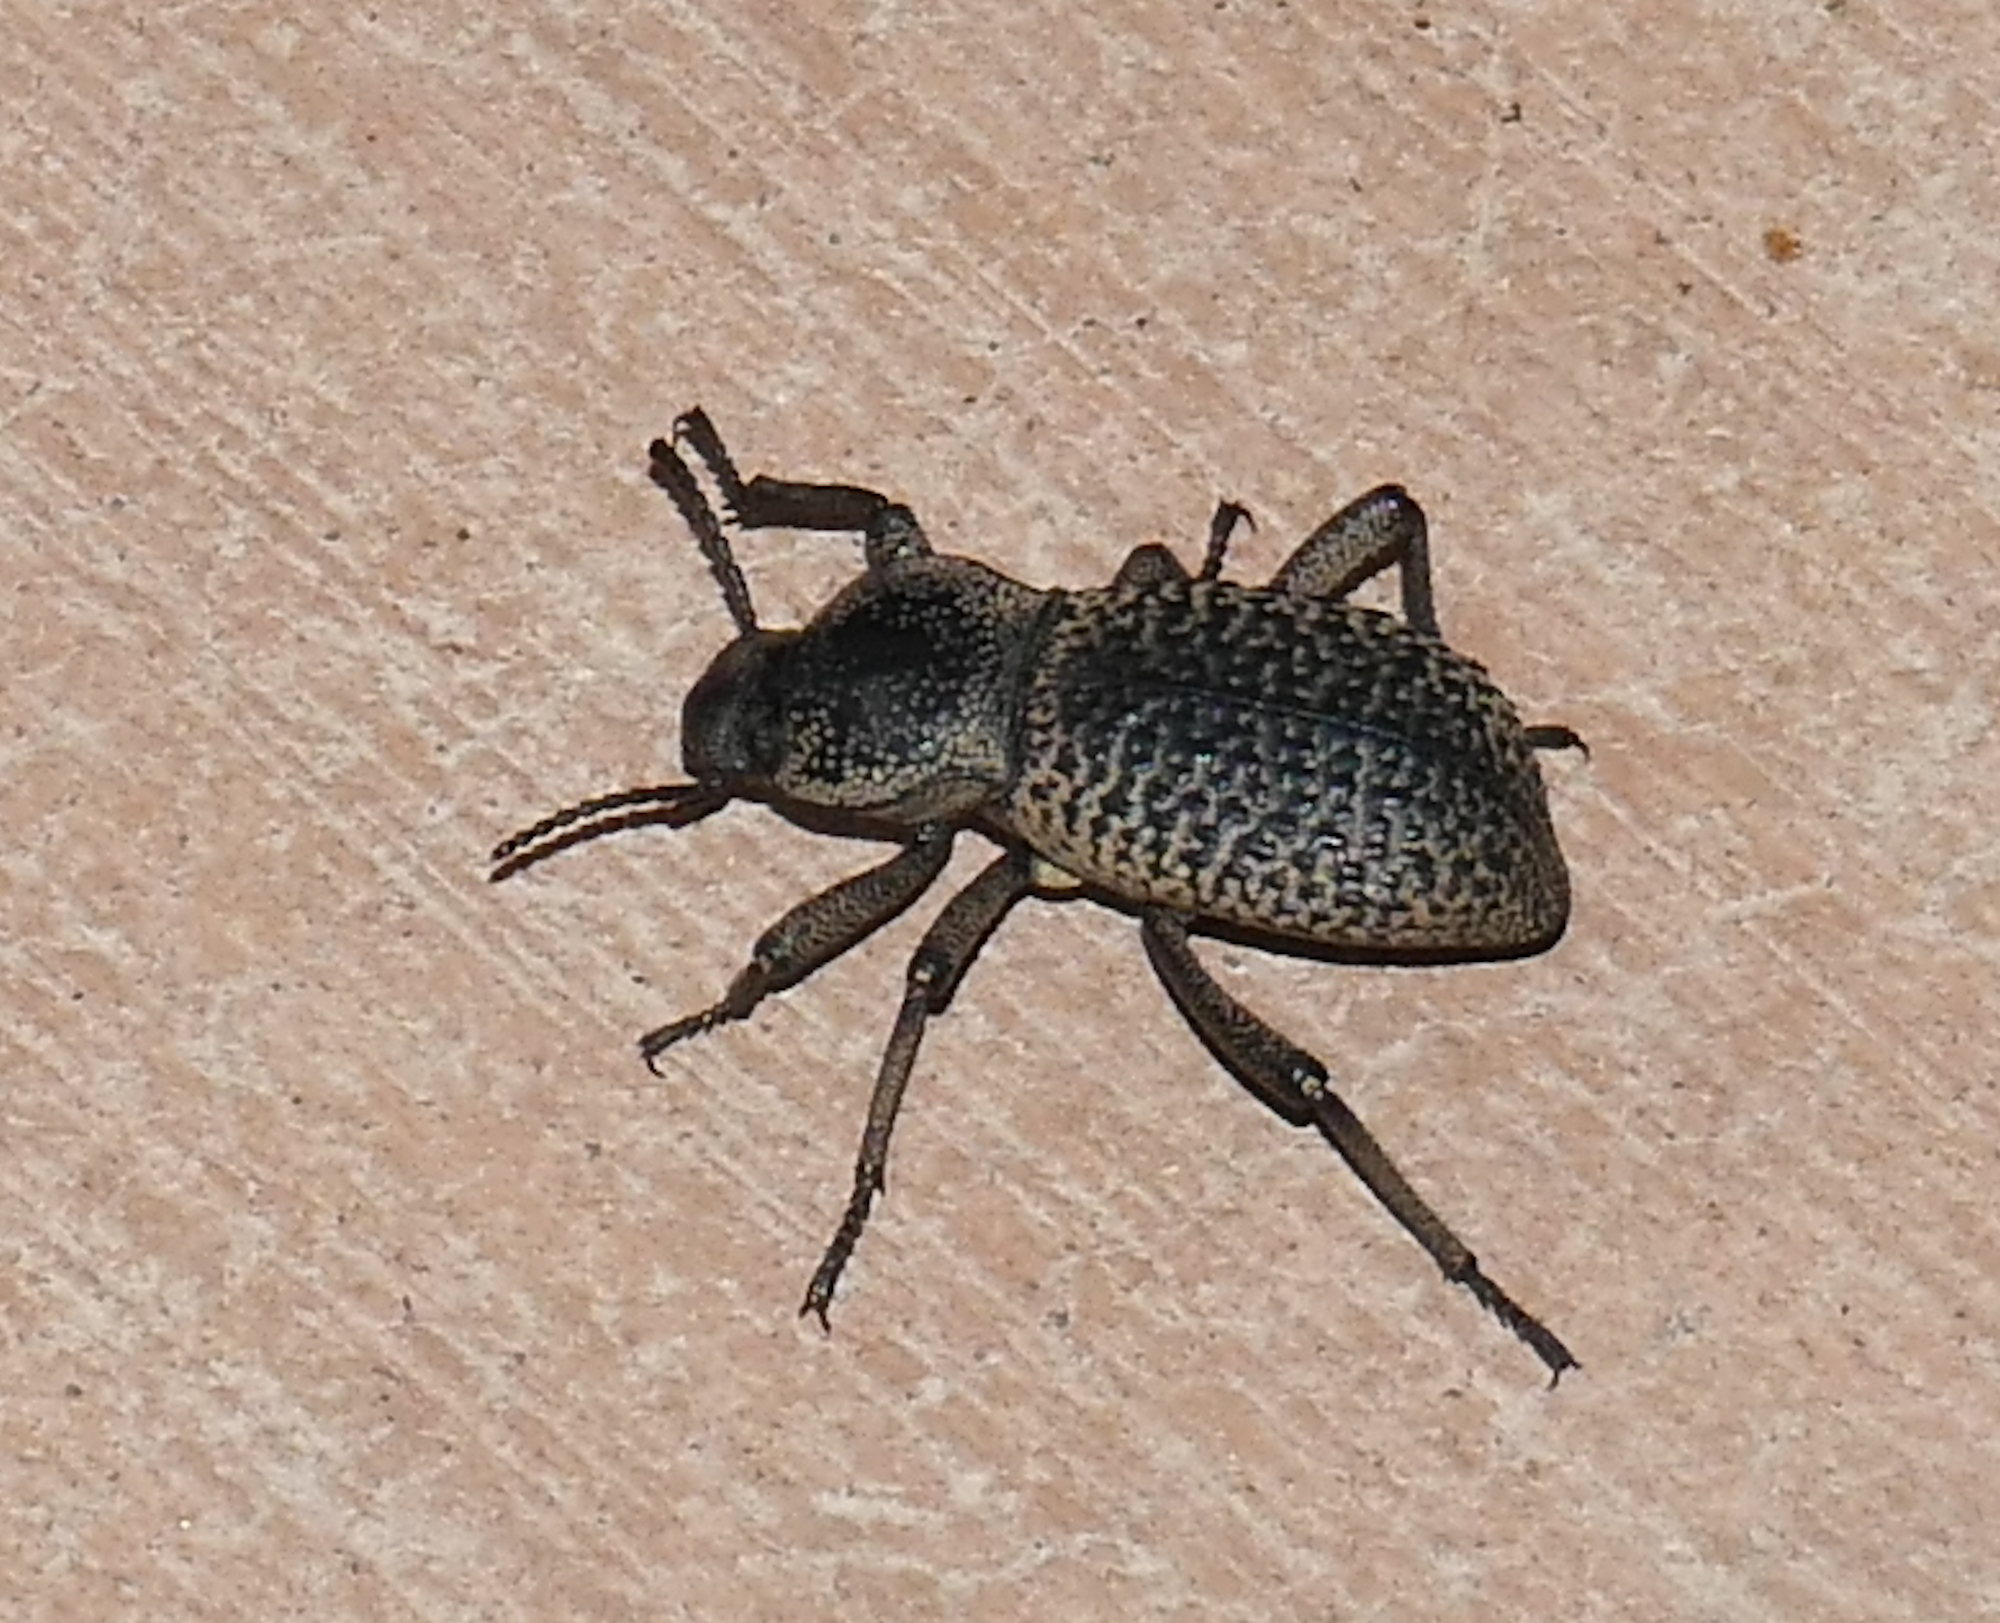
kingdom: Animalia
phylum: Arthropoda
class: Insecta
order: Coleoptera
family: Tenebrionidae
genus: Cryptoglossa
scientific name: Cryptoglossa variolosa
